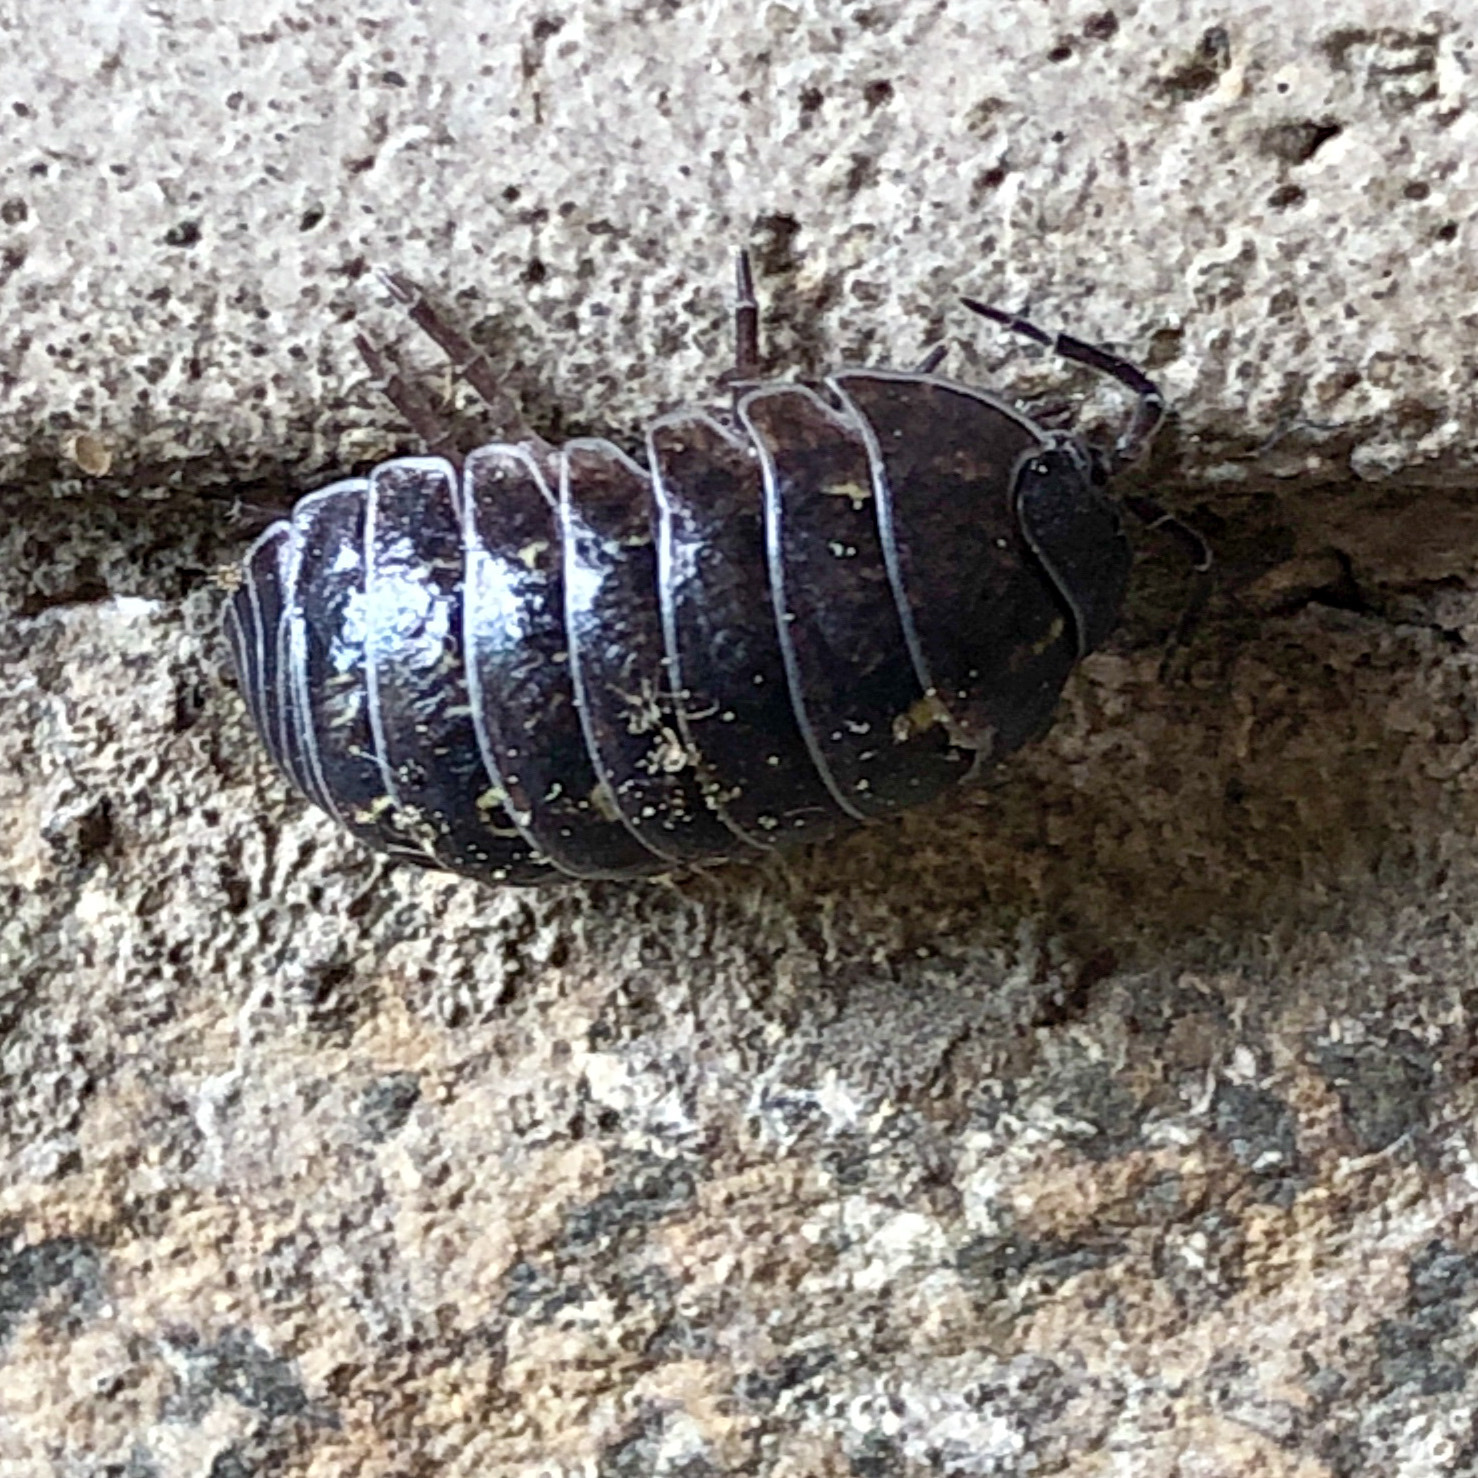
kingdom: Animalia
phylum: Arthropoda
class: Malacostraca
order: Isopoda
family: Armadillidiidae
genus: Armadillidium
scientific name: Armadillidium vulgare
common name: Common pill woodlouse
